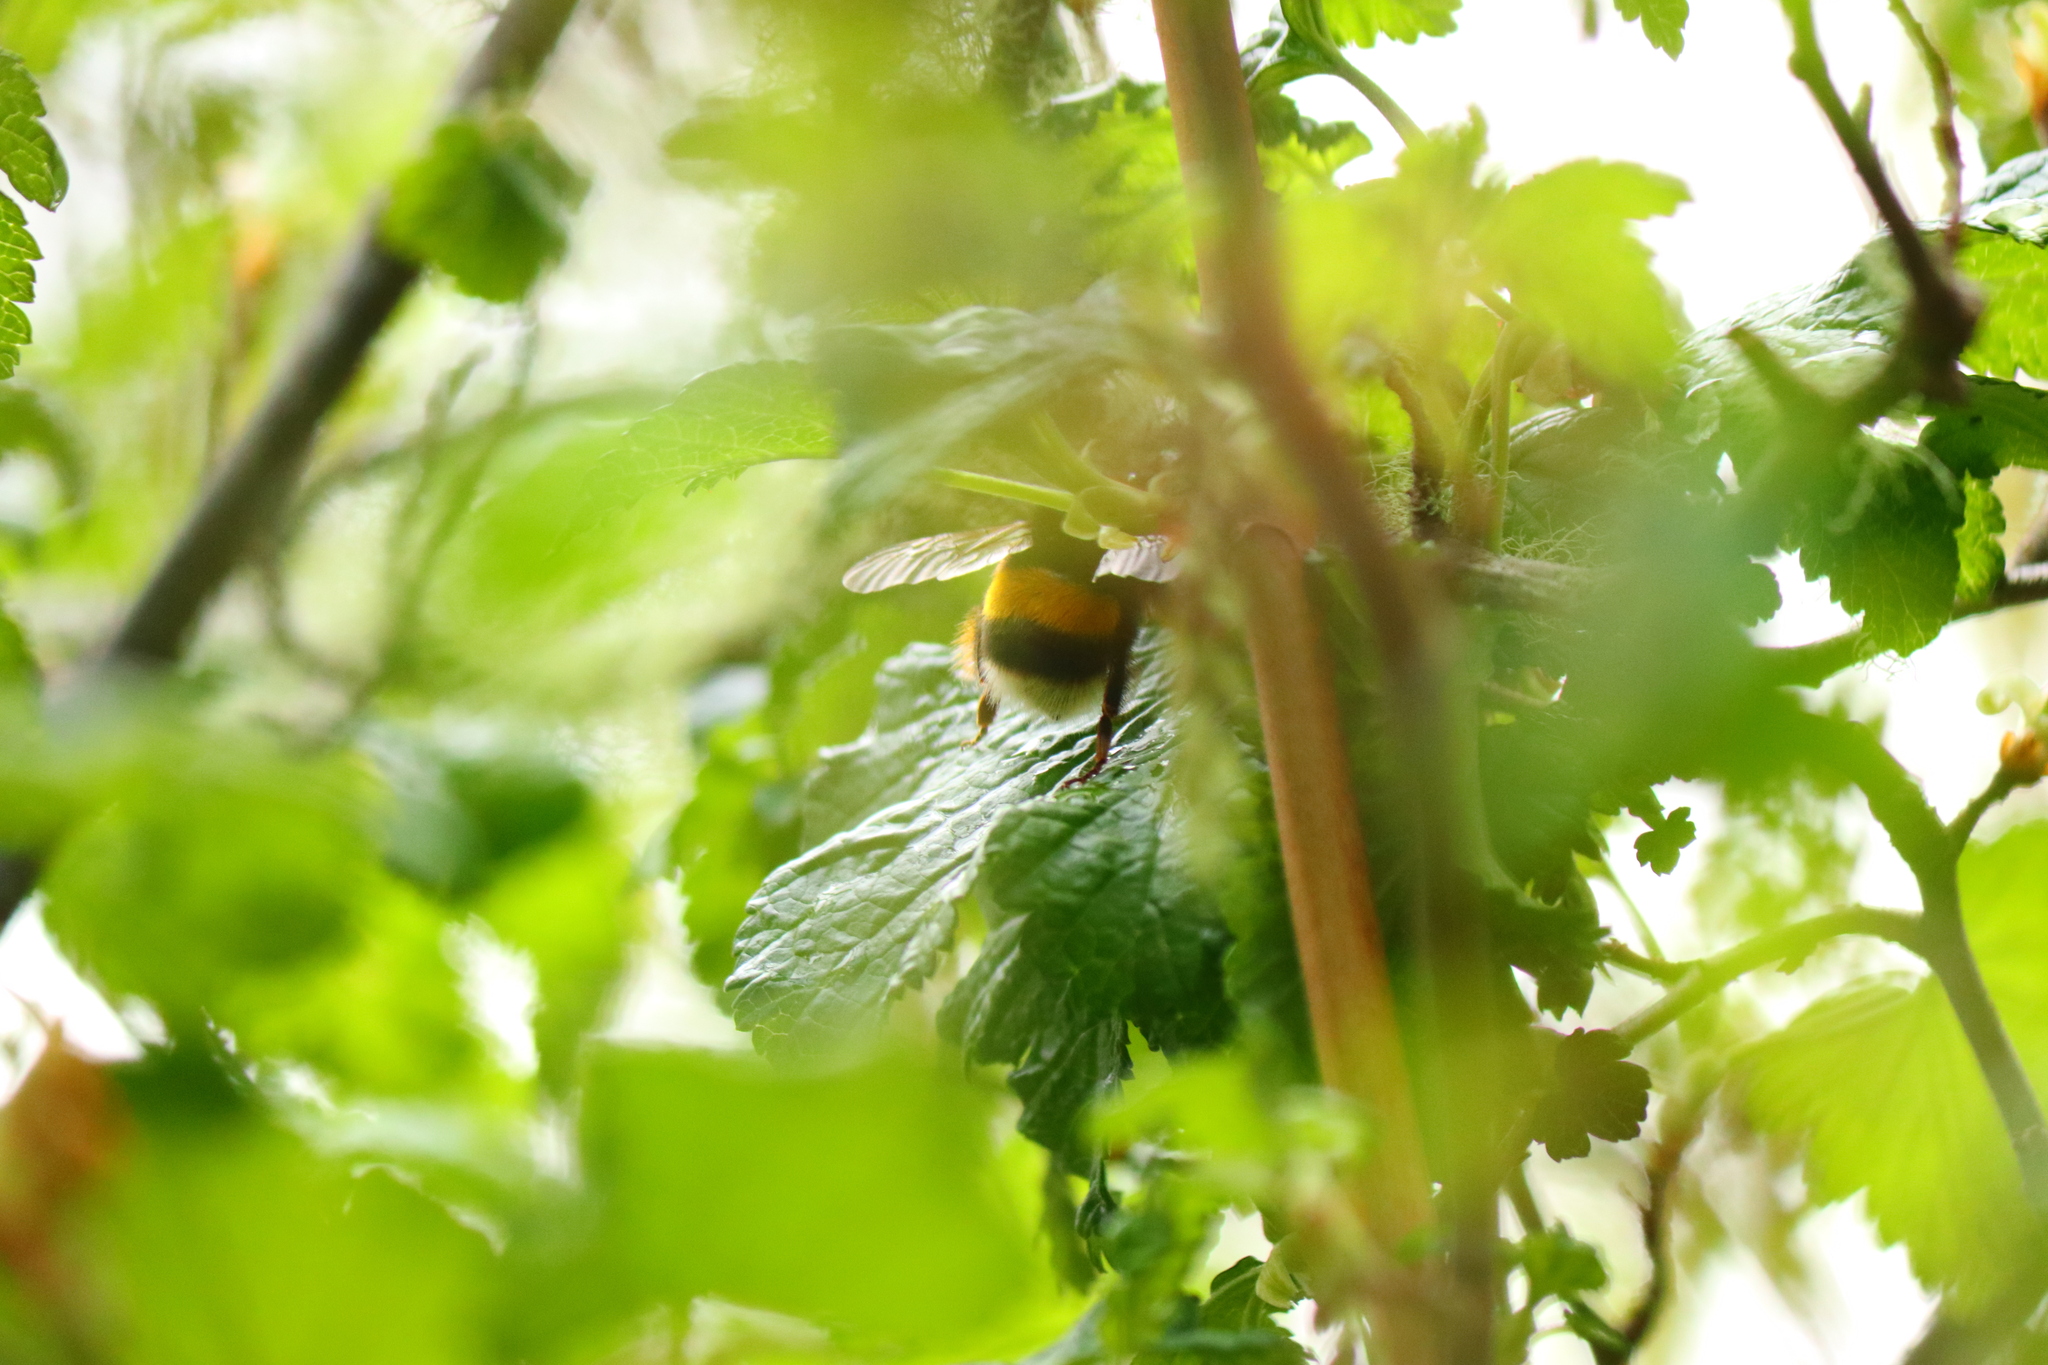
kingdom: Animalia
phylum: Arthropoda
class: Insecta
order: Hymenoptera
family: Apidae
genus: Bombus
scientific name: Bombus terrestris
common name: Buff-tailed bumblebee
